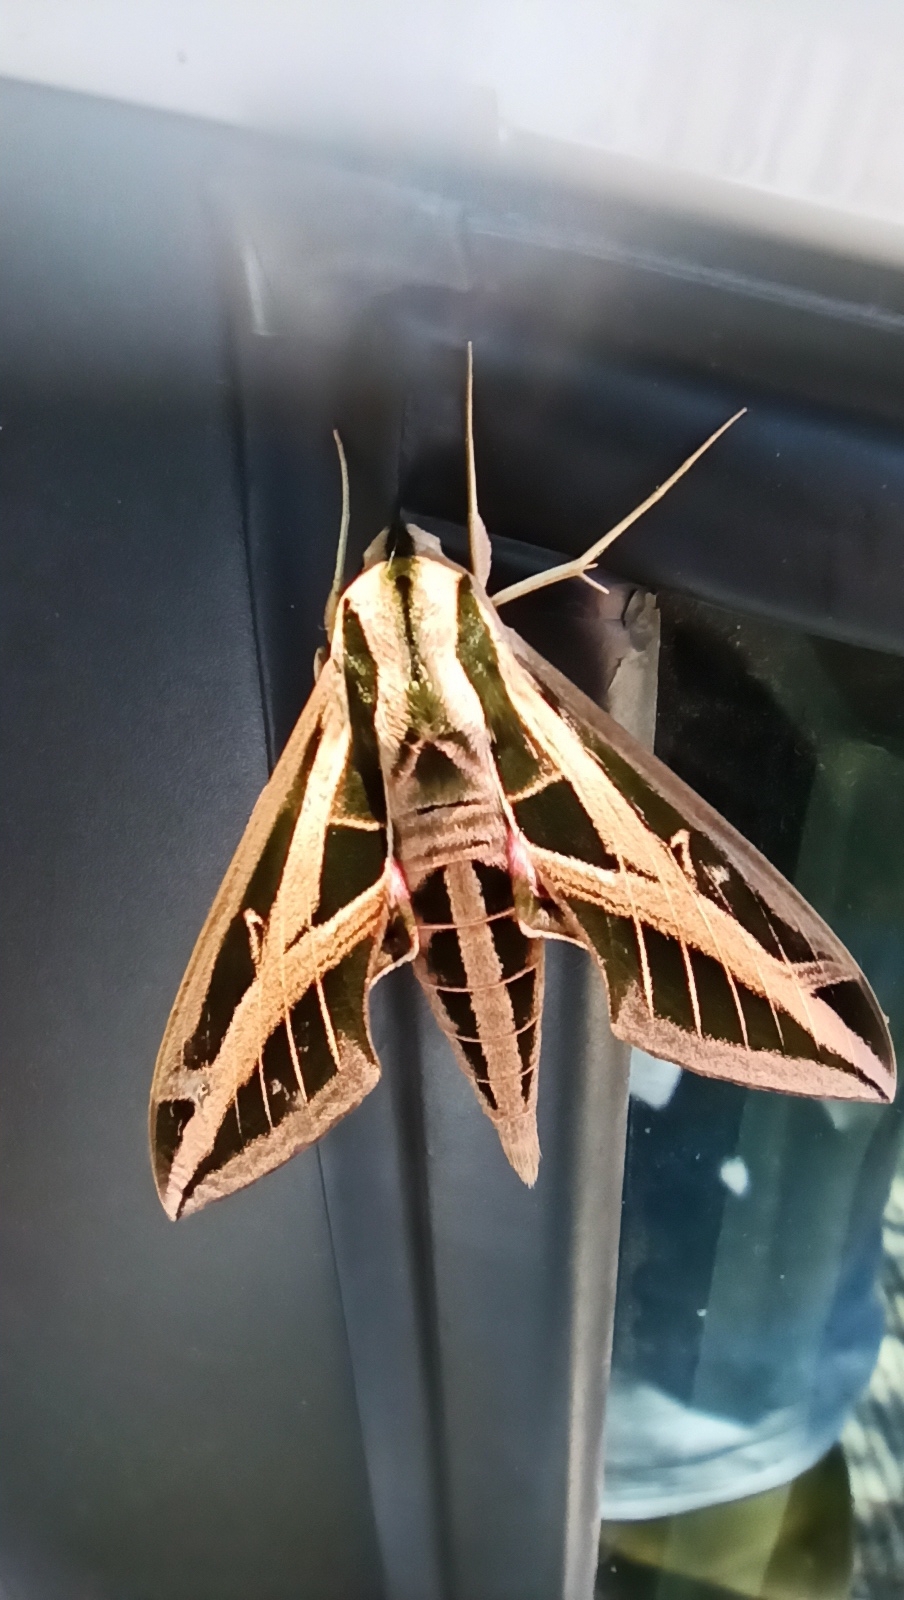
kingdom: Animalia
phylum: Arthropoda
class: Insecta
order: Lepidoptera
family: Sphingidae
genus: Eumorpha
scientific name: Eumorpha fasciatus
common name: Banded sphinx
